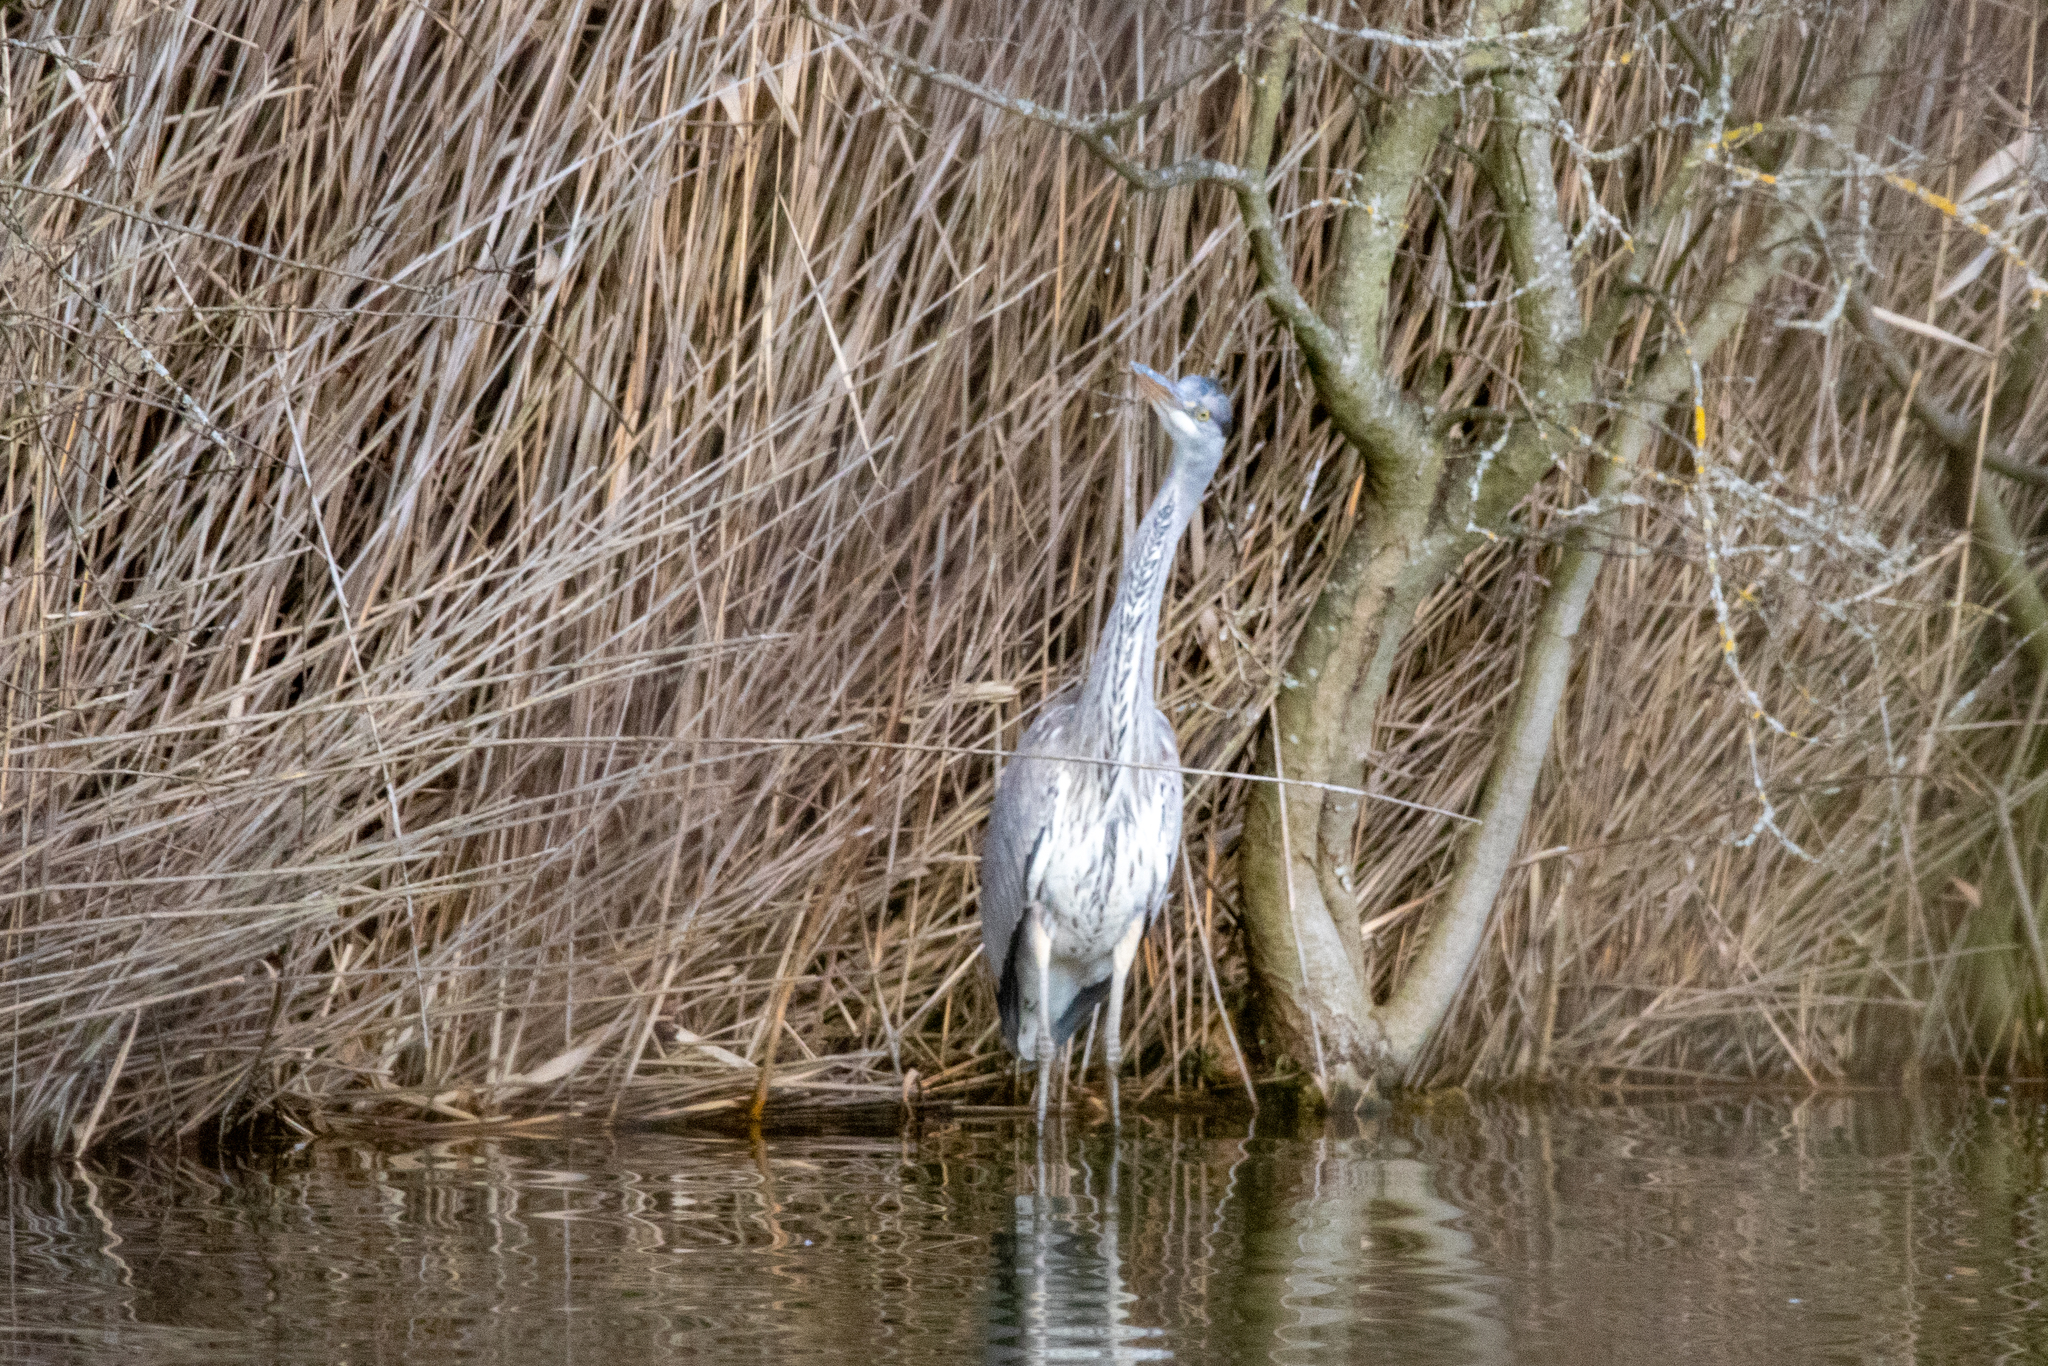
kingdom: Animalia
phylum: Chordata
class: Aves
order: Pelecaniformes
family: Ardeidae
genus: Ardea
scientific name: Ardea cinerea
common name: Grey heron
